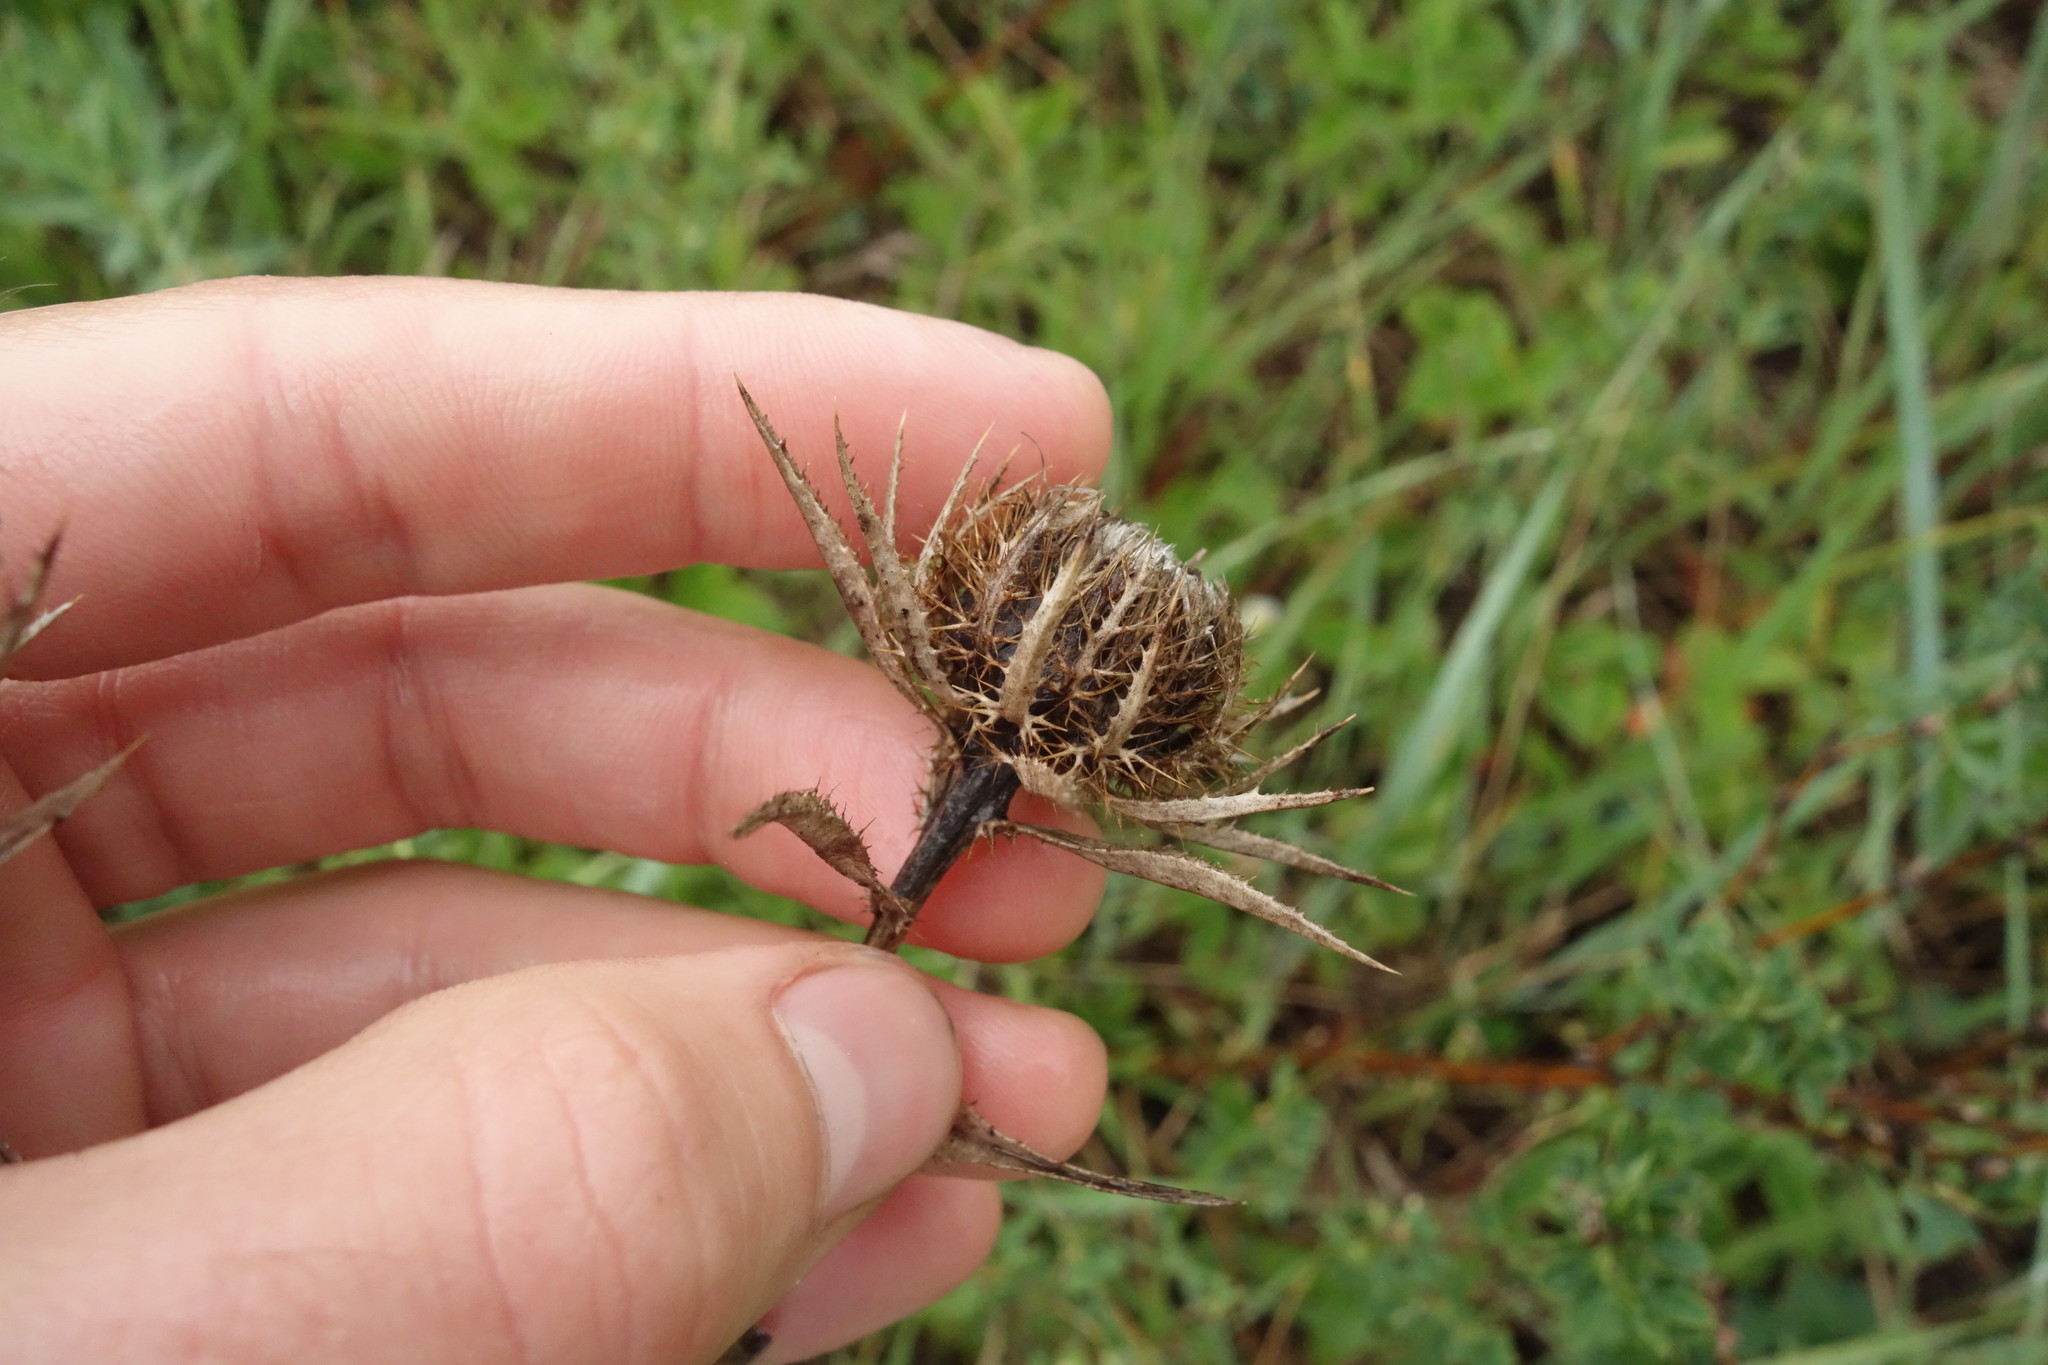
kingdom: Plantae
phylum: Tracheophyta
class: Magnoliopsida
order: Asterales
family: Asteraceae
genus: Carlina
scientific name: Carlina biebersteinii
